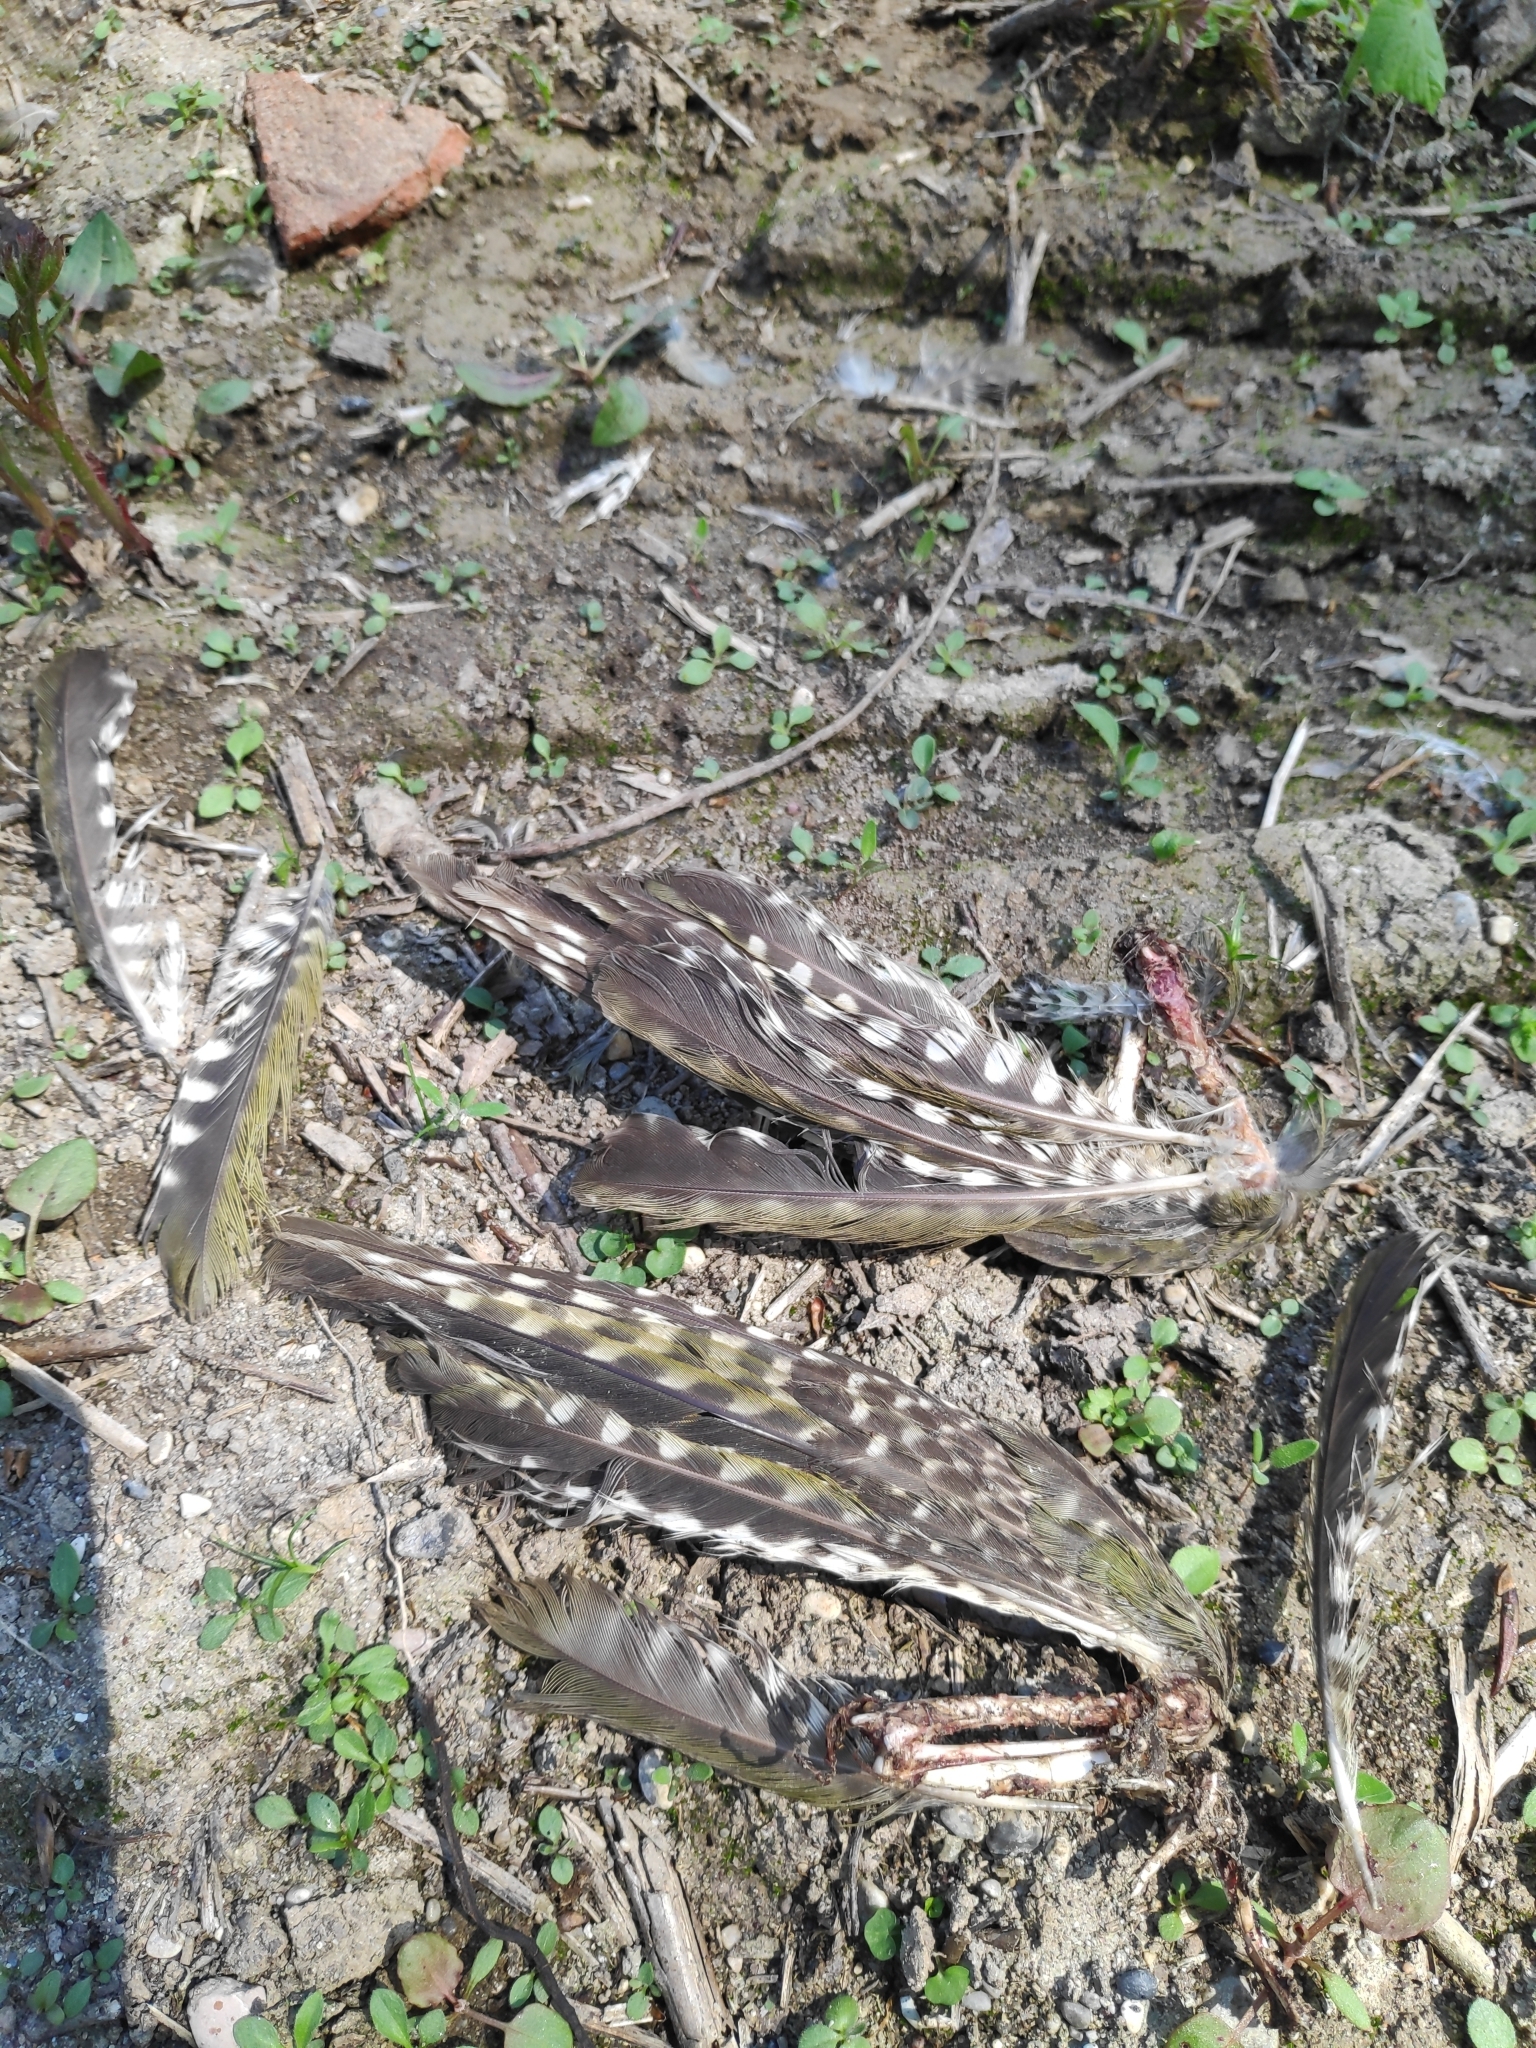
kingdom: Animalia
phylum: Chordata
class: Aves
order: Piciformes
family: Picidae
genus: Picus
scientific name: Picus viridis
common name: European green woodpecker
